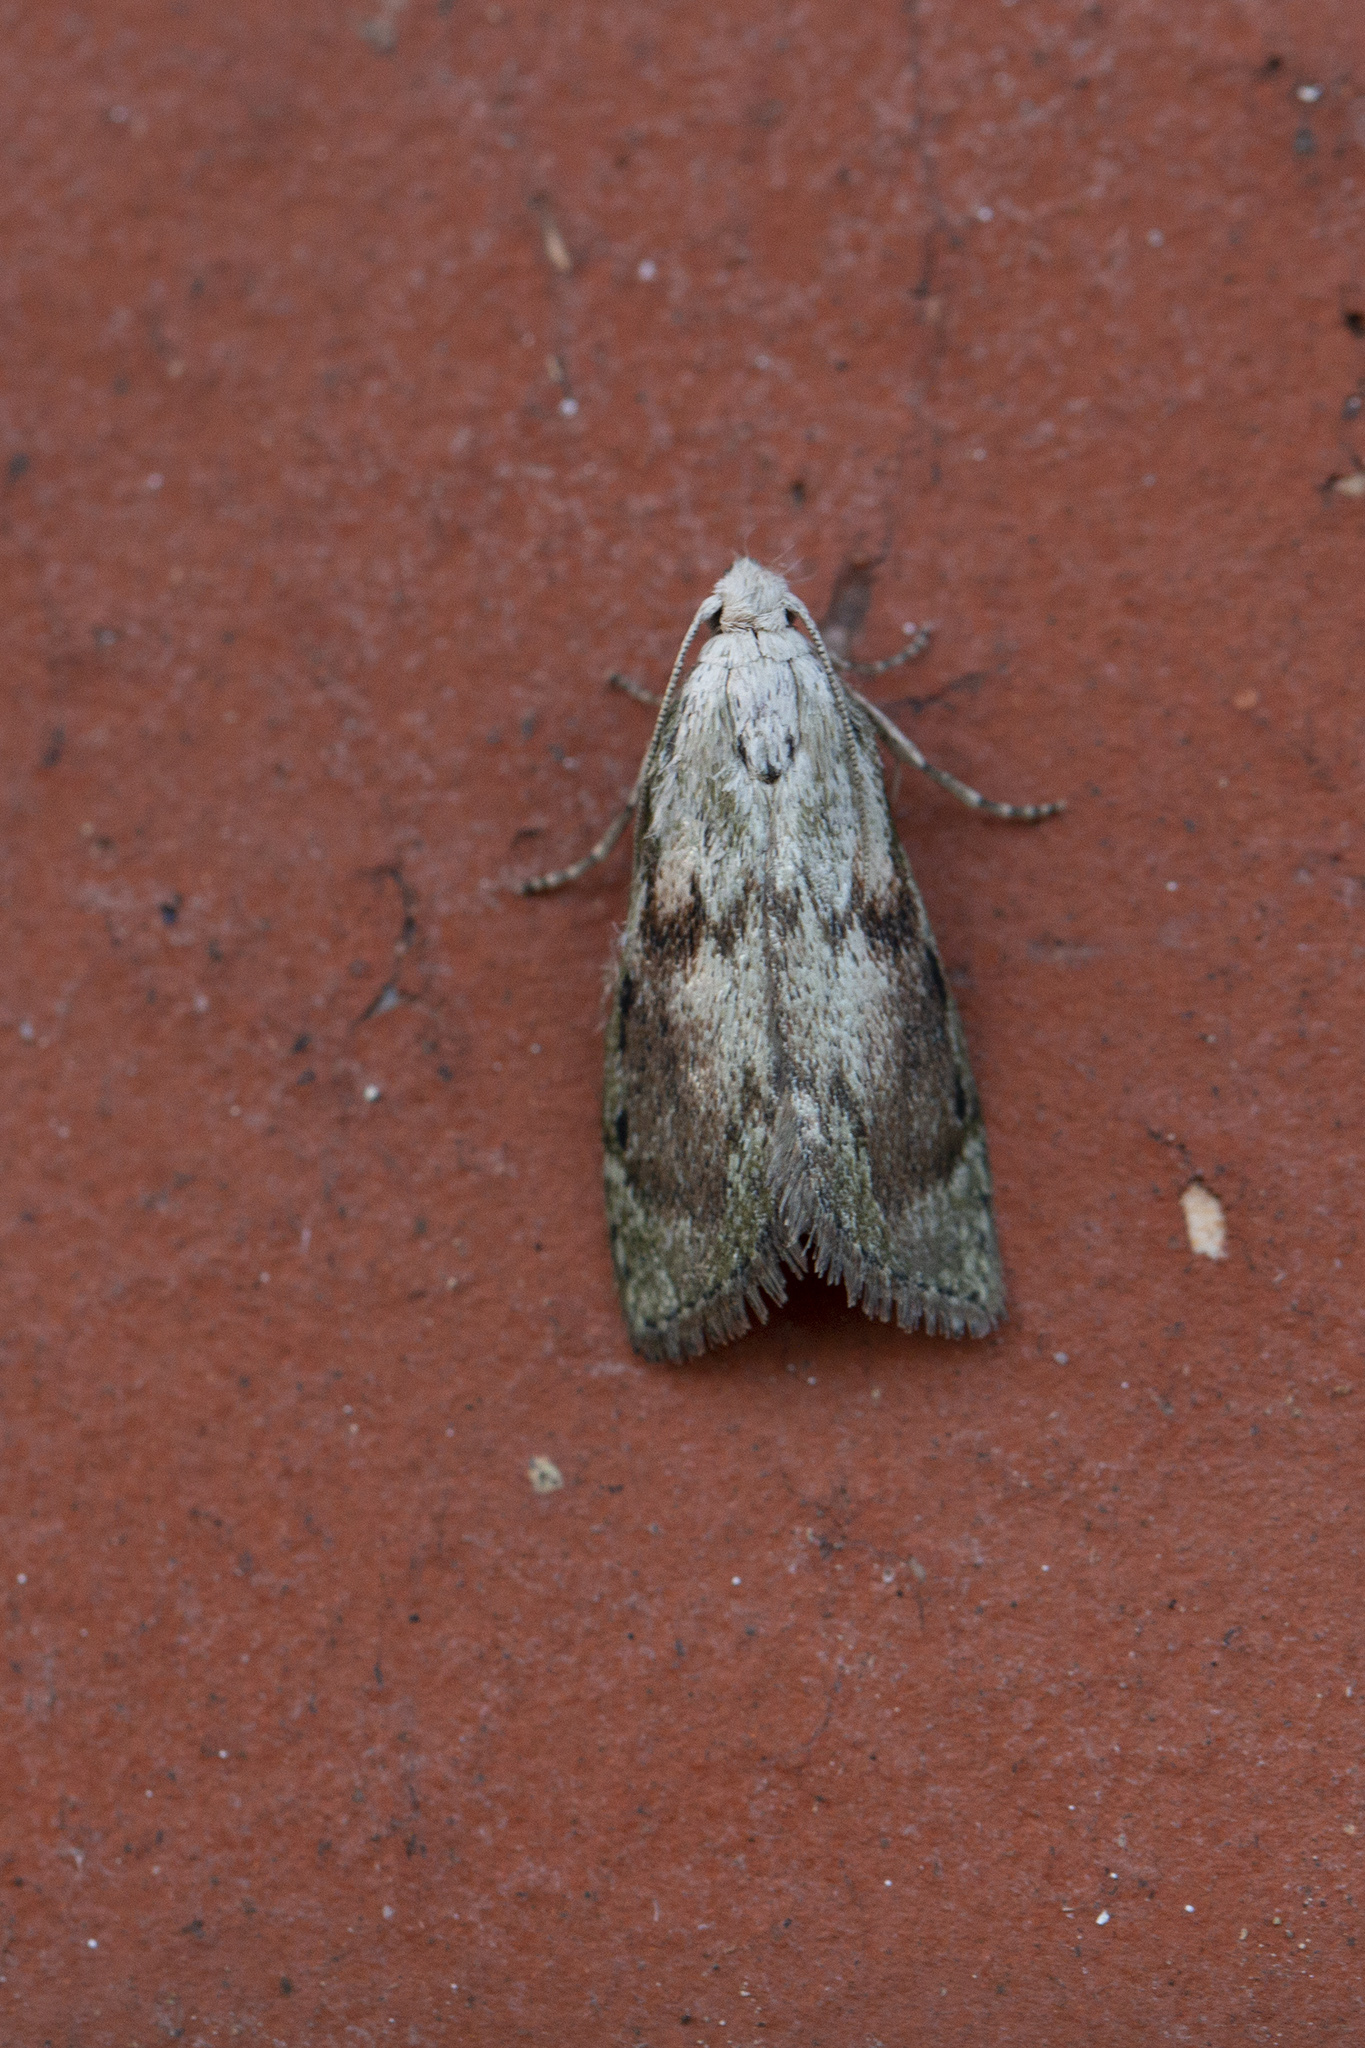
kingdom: Animalia
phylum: Arthropoda
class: Insecta
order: Lepidoptera
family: Pyralidae
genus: Aphomia
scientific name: Aphomia sociella
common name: Bee moth
